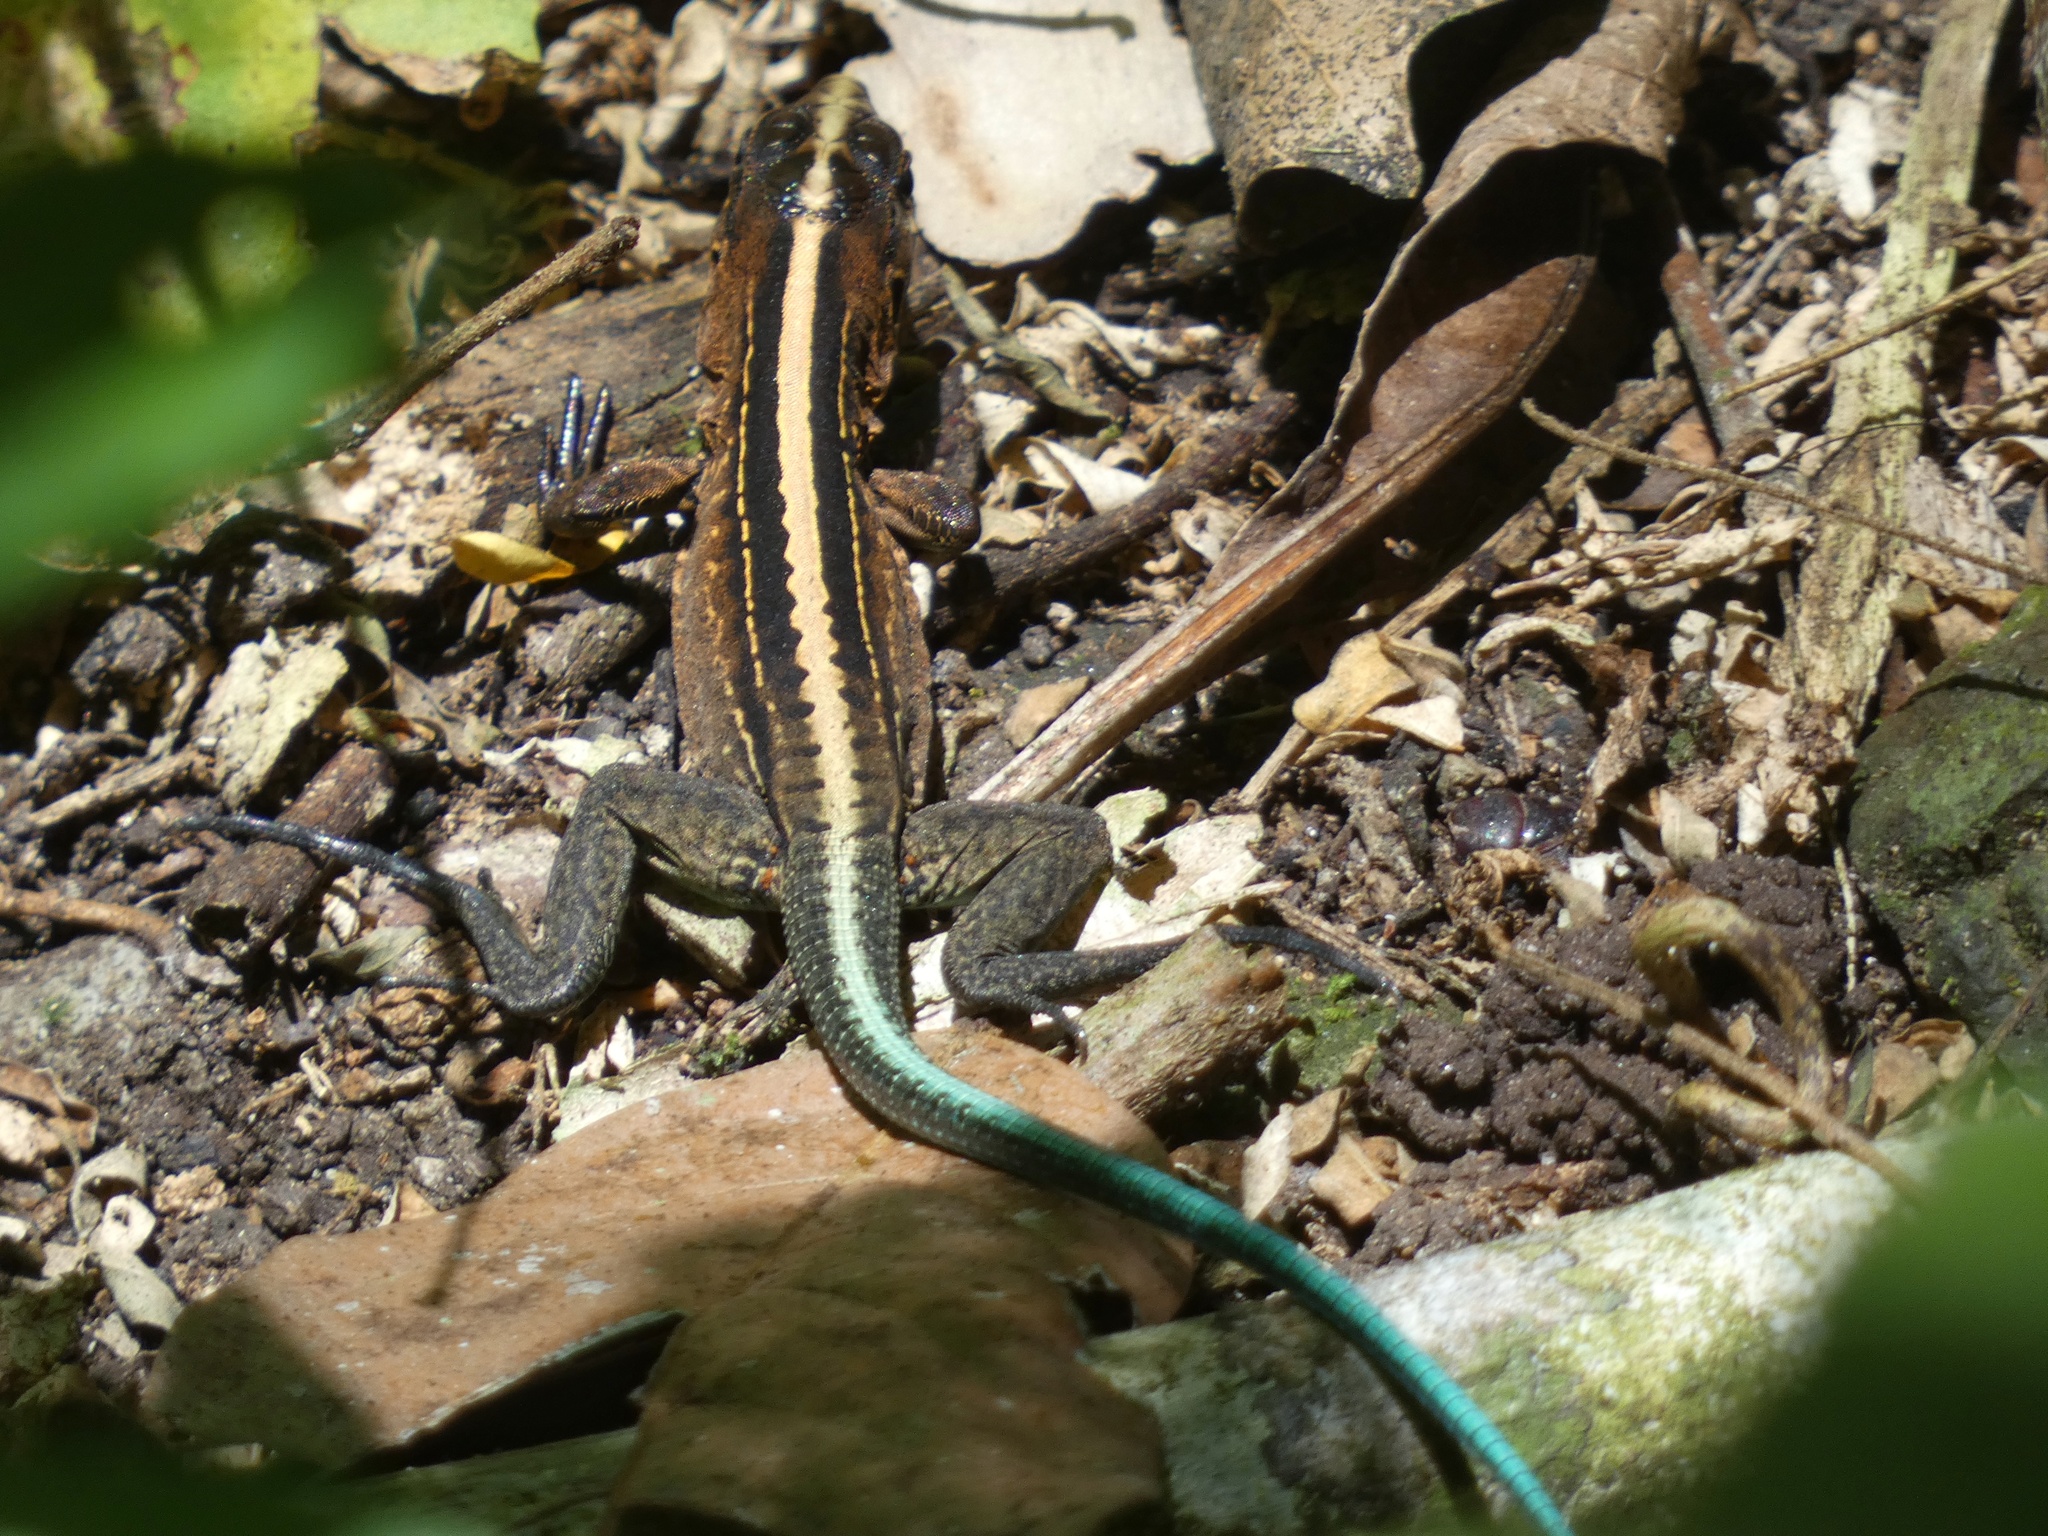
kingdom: Animalia
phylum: Chordata
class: Squamata
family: Teiidae
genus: Holcosus
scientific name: Holcosus festivus
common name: Middle american ameiva
